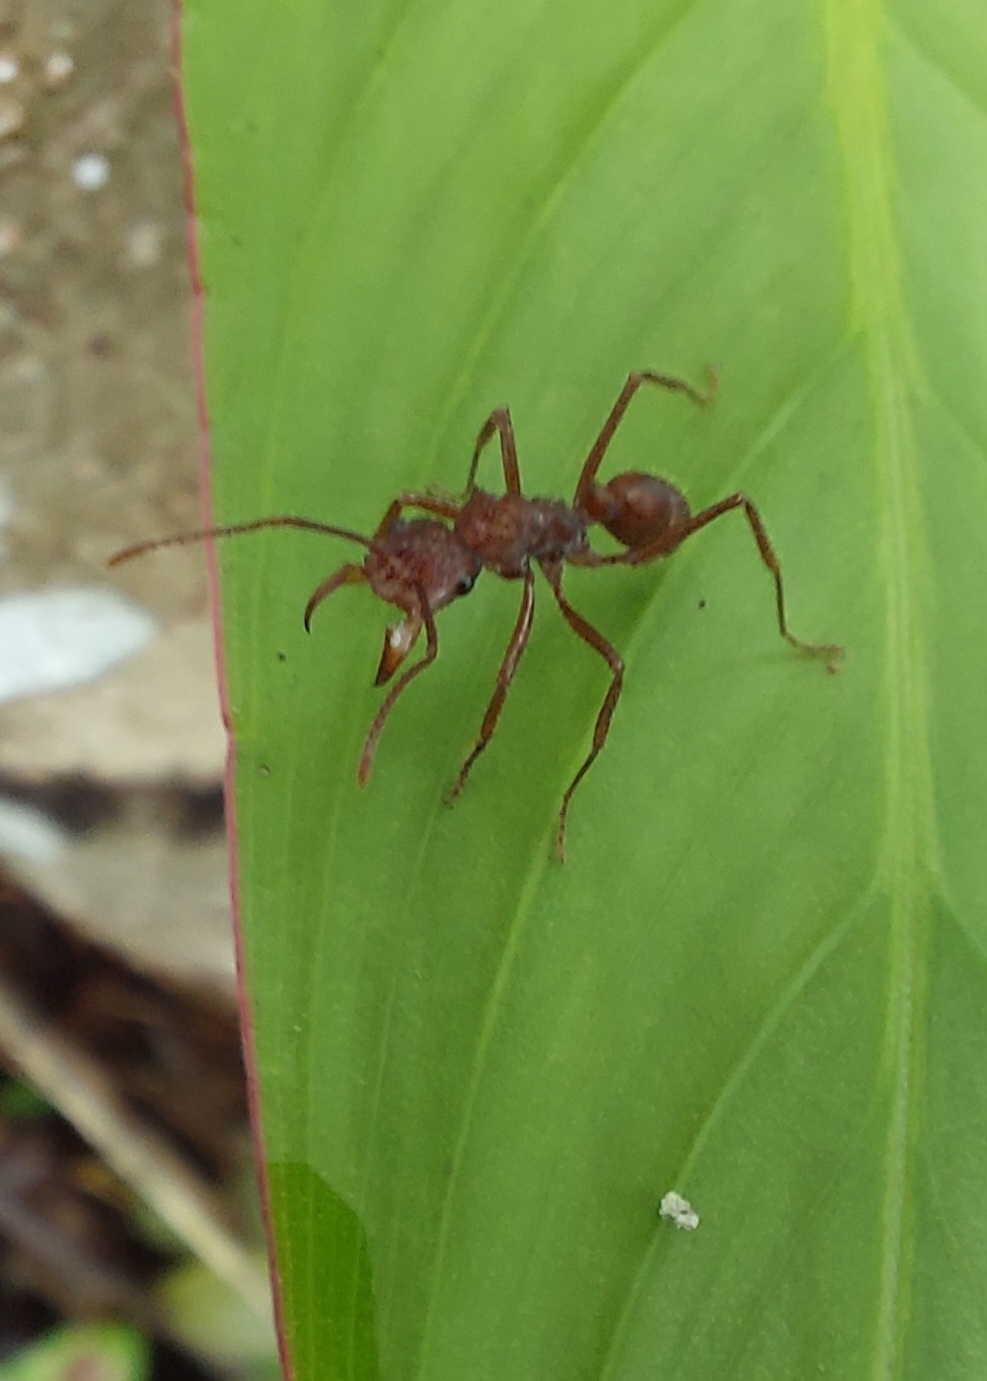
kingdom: Animalia
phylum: Arthropoda
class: Insecta
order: Hymenoptera
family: Formicidae
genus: Ectatomma
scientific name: Ectatomma tuberculatum
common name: Ant
